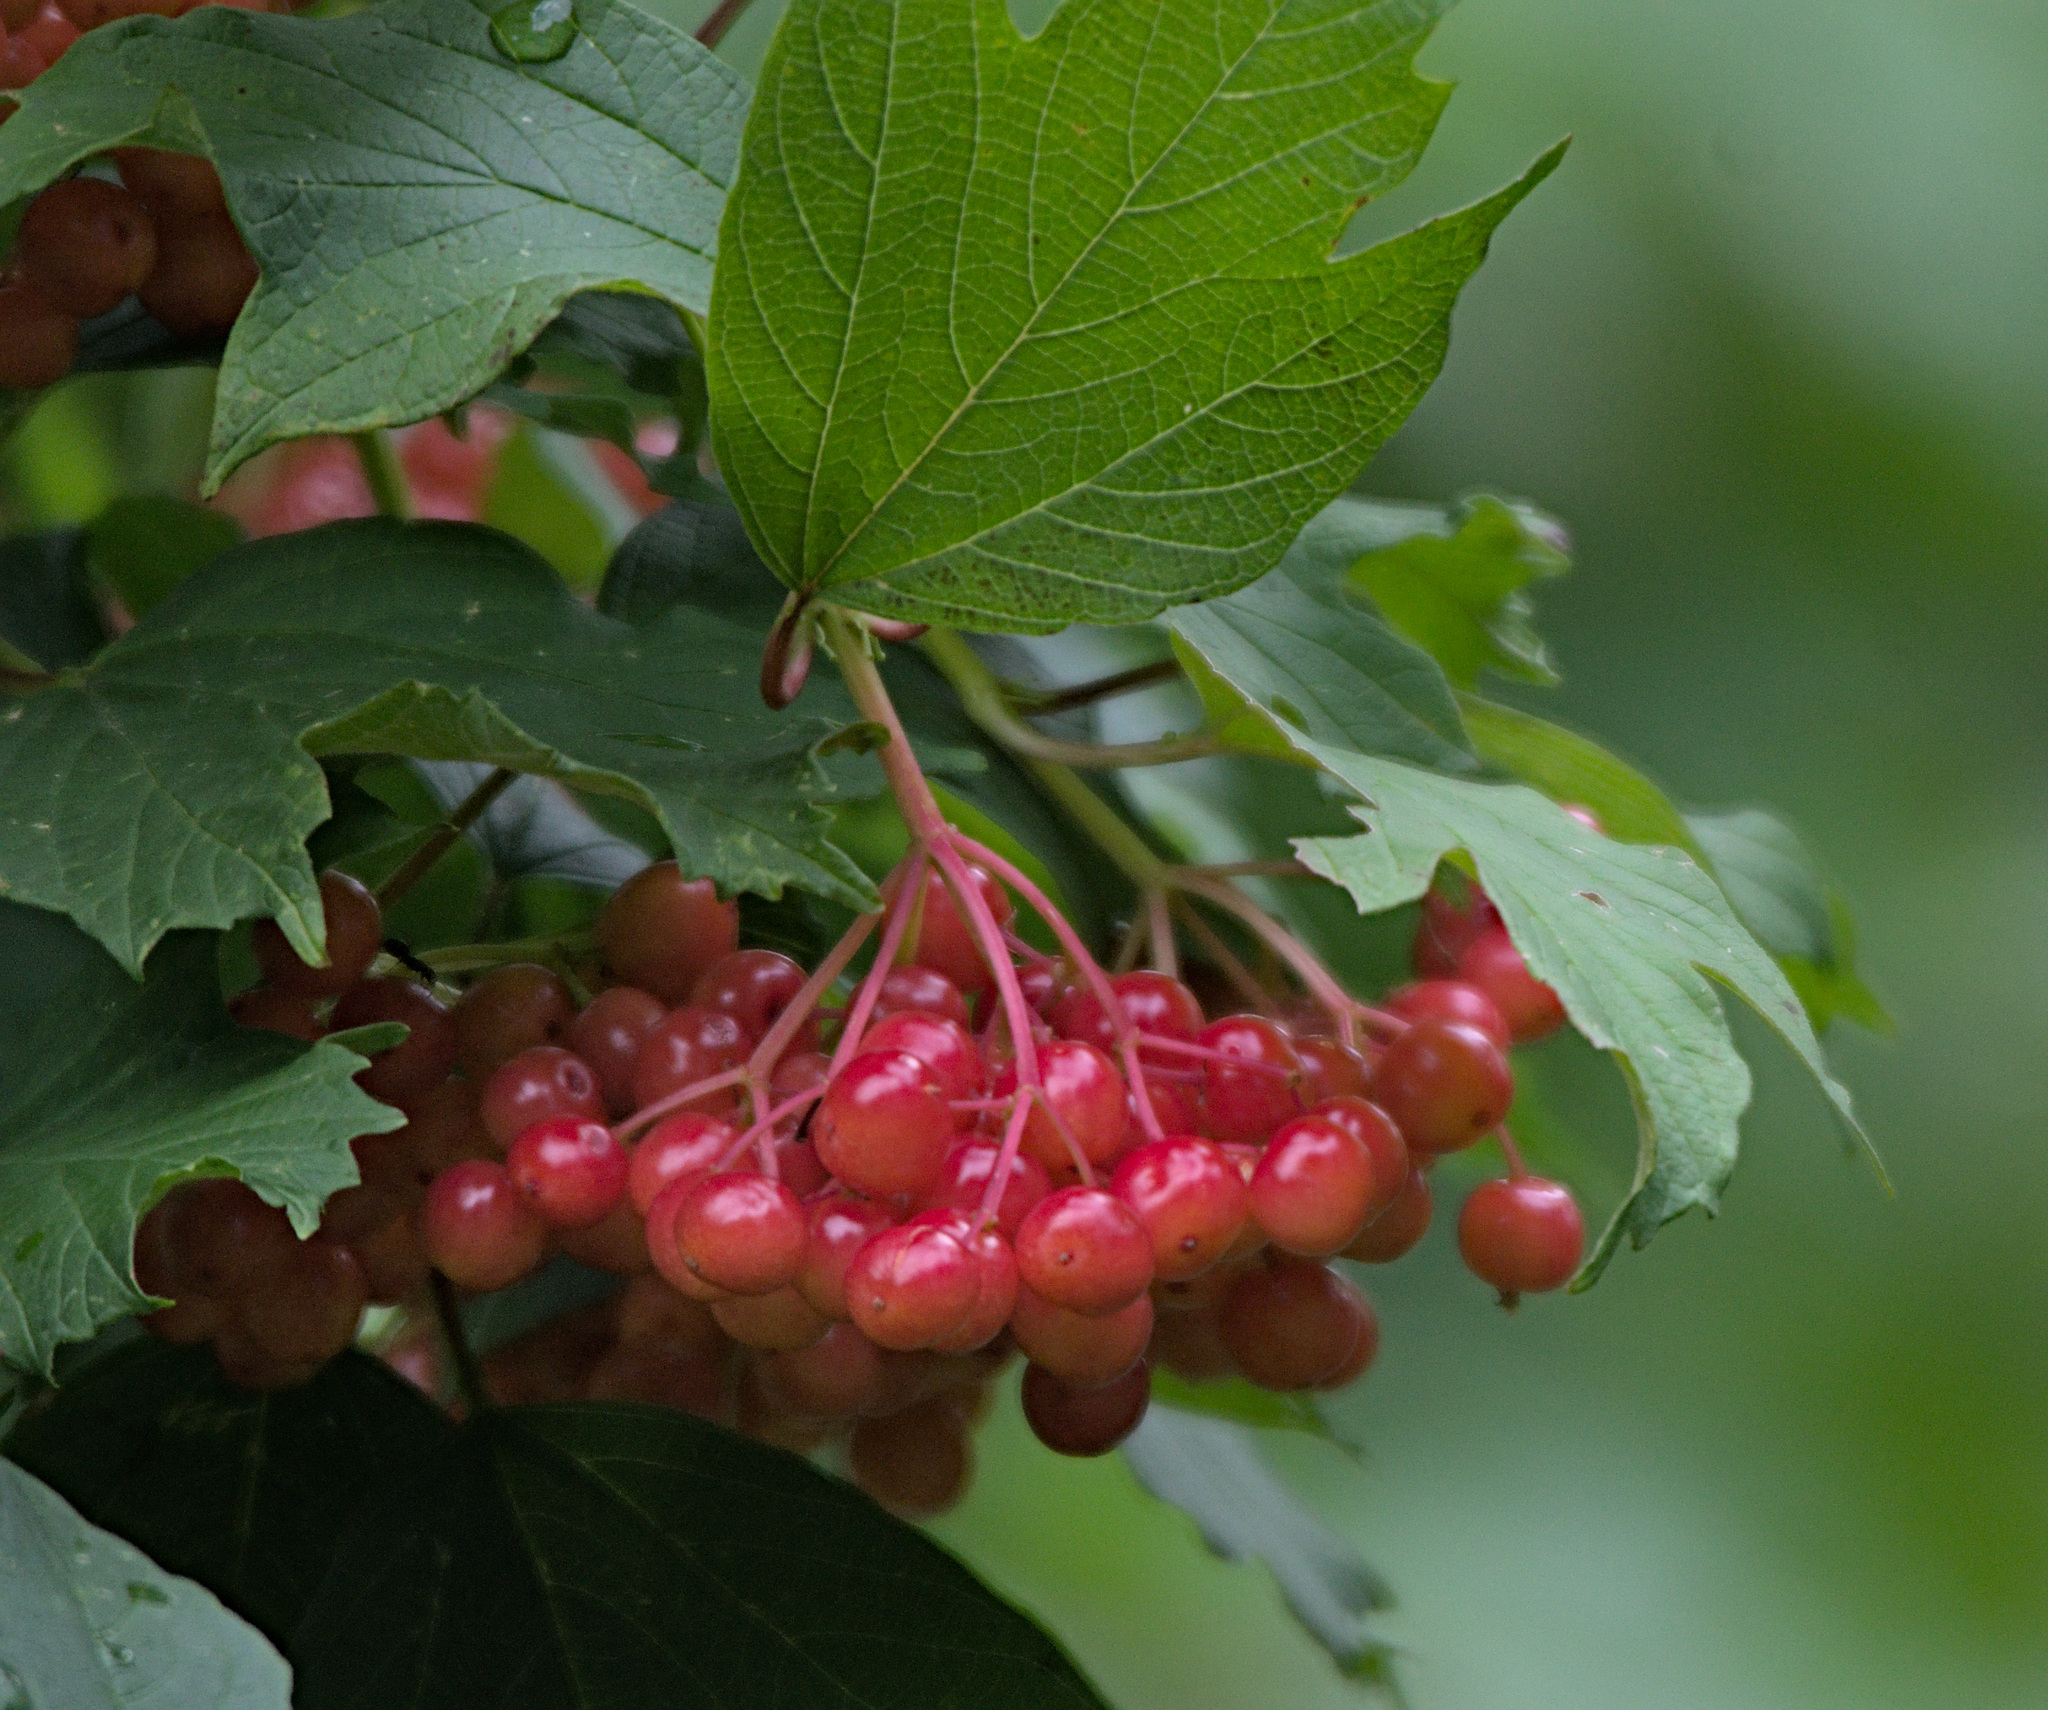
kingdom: Plantae
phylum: Tracheophyta
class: Magnoliopsida
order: Dipsacales
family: Viburnaceae
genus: Viburnum
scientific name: Viburnum opulus
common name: Guelder-rose
